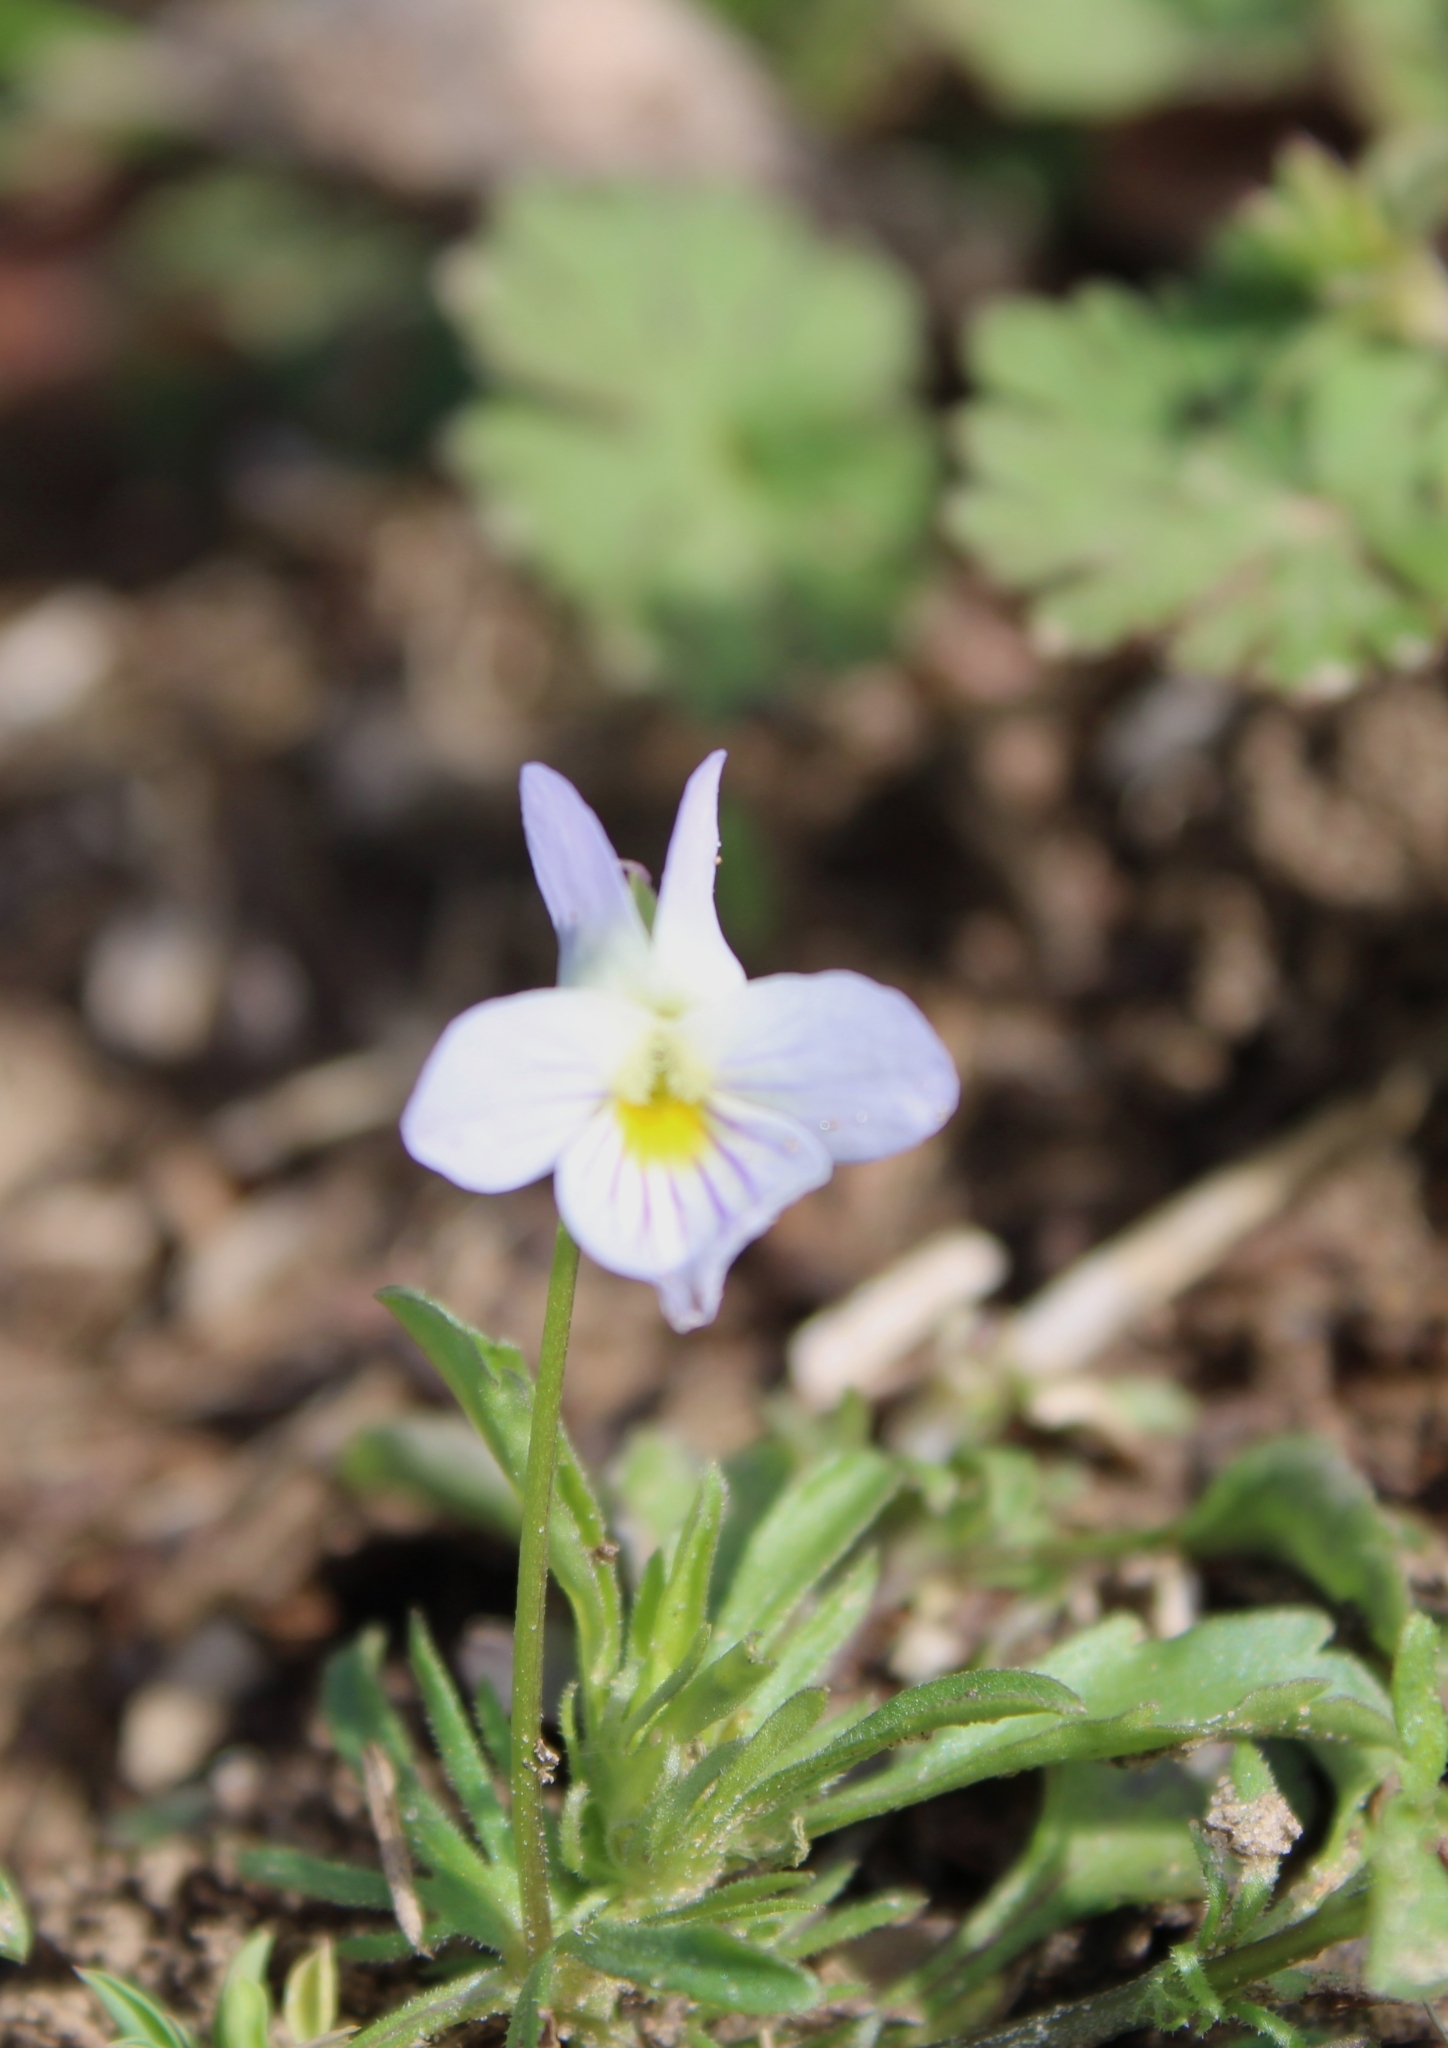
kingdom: Plantae
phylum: Tracheophyta
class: Magnoliopsida
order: Malpighiales
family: Violaceae
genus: Viola
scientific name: Viola rafinesquei
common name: American field pansy
